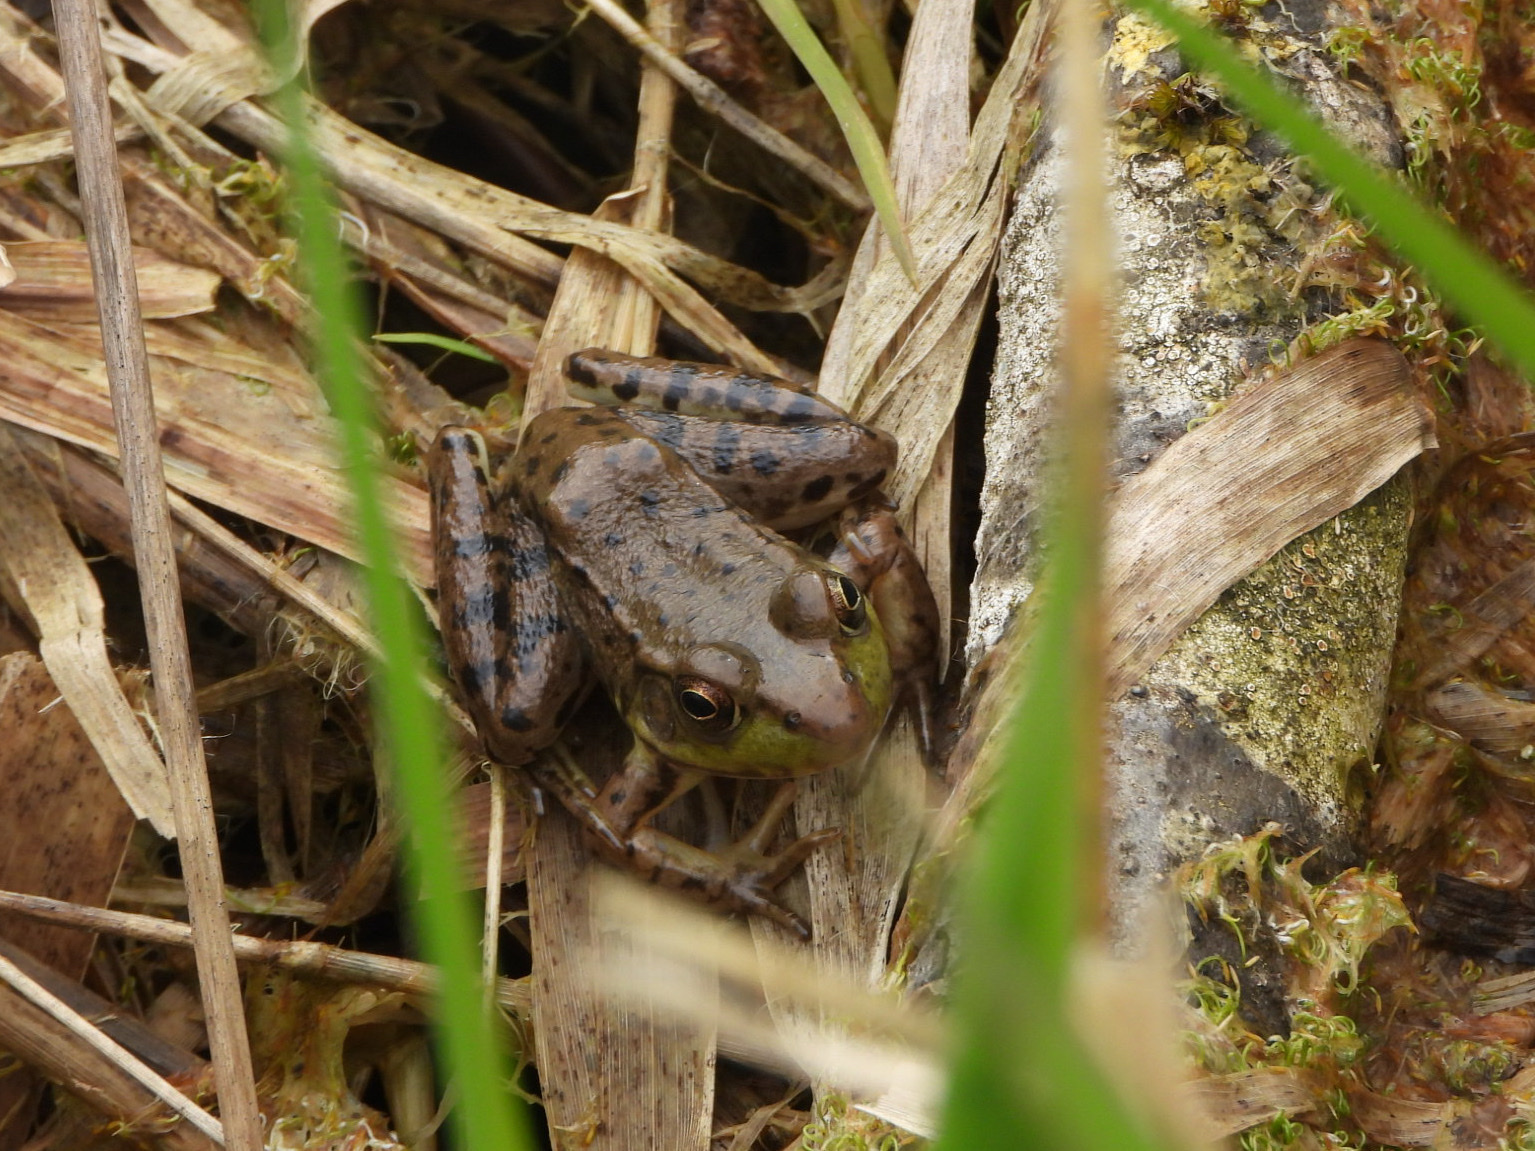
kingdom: Animalia
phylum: Chordata
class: Amphibia
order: Anura
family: Ranidae
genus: Lithobates
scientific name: Lithobates clamitans
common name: Green frog
